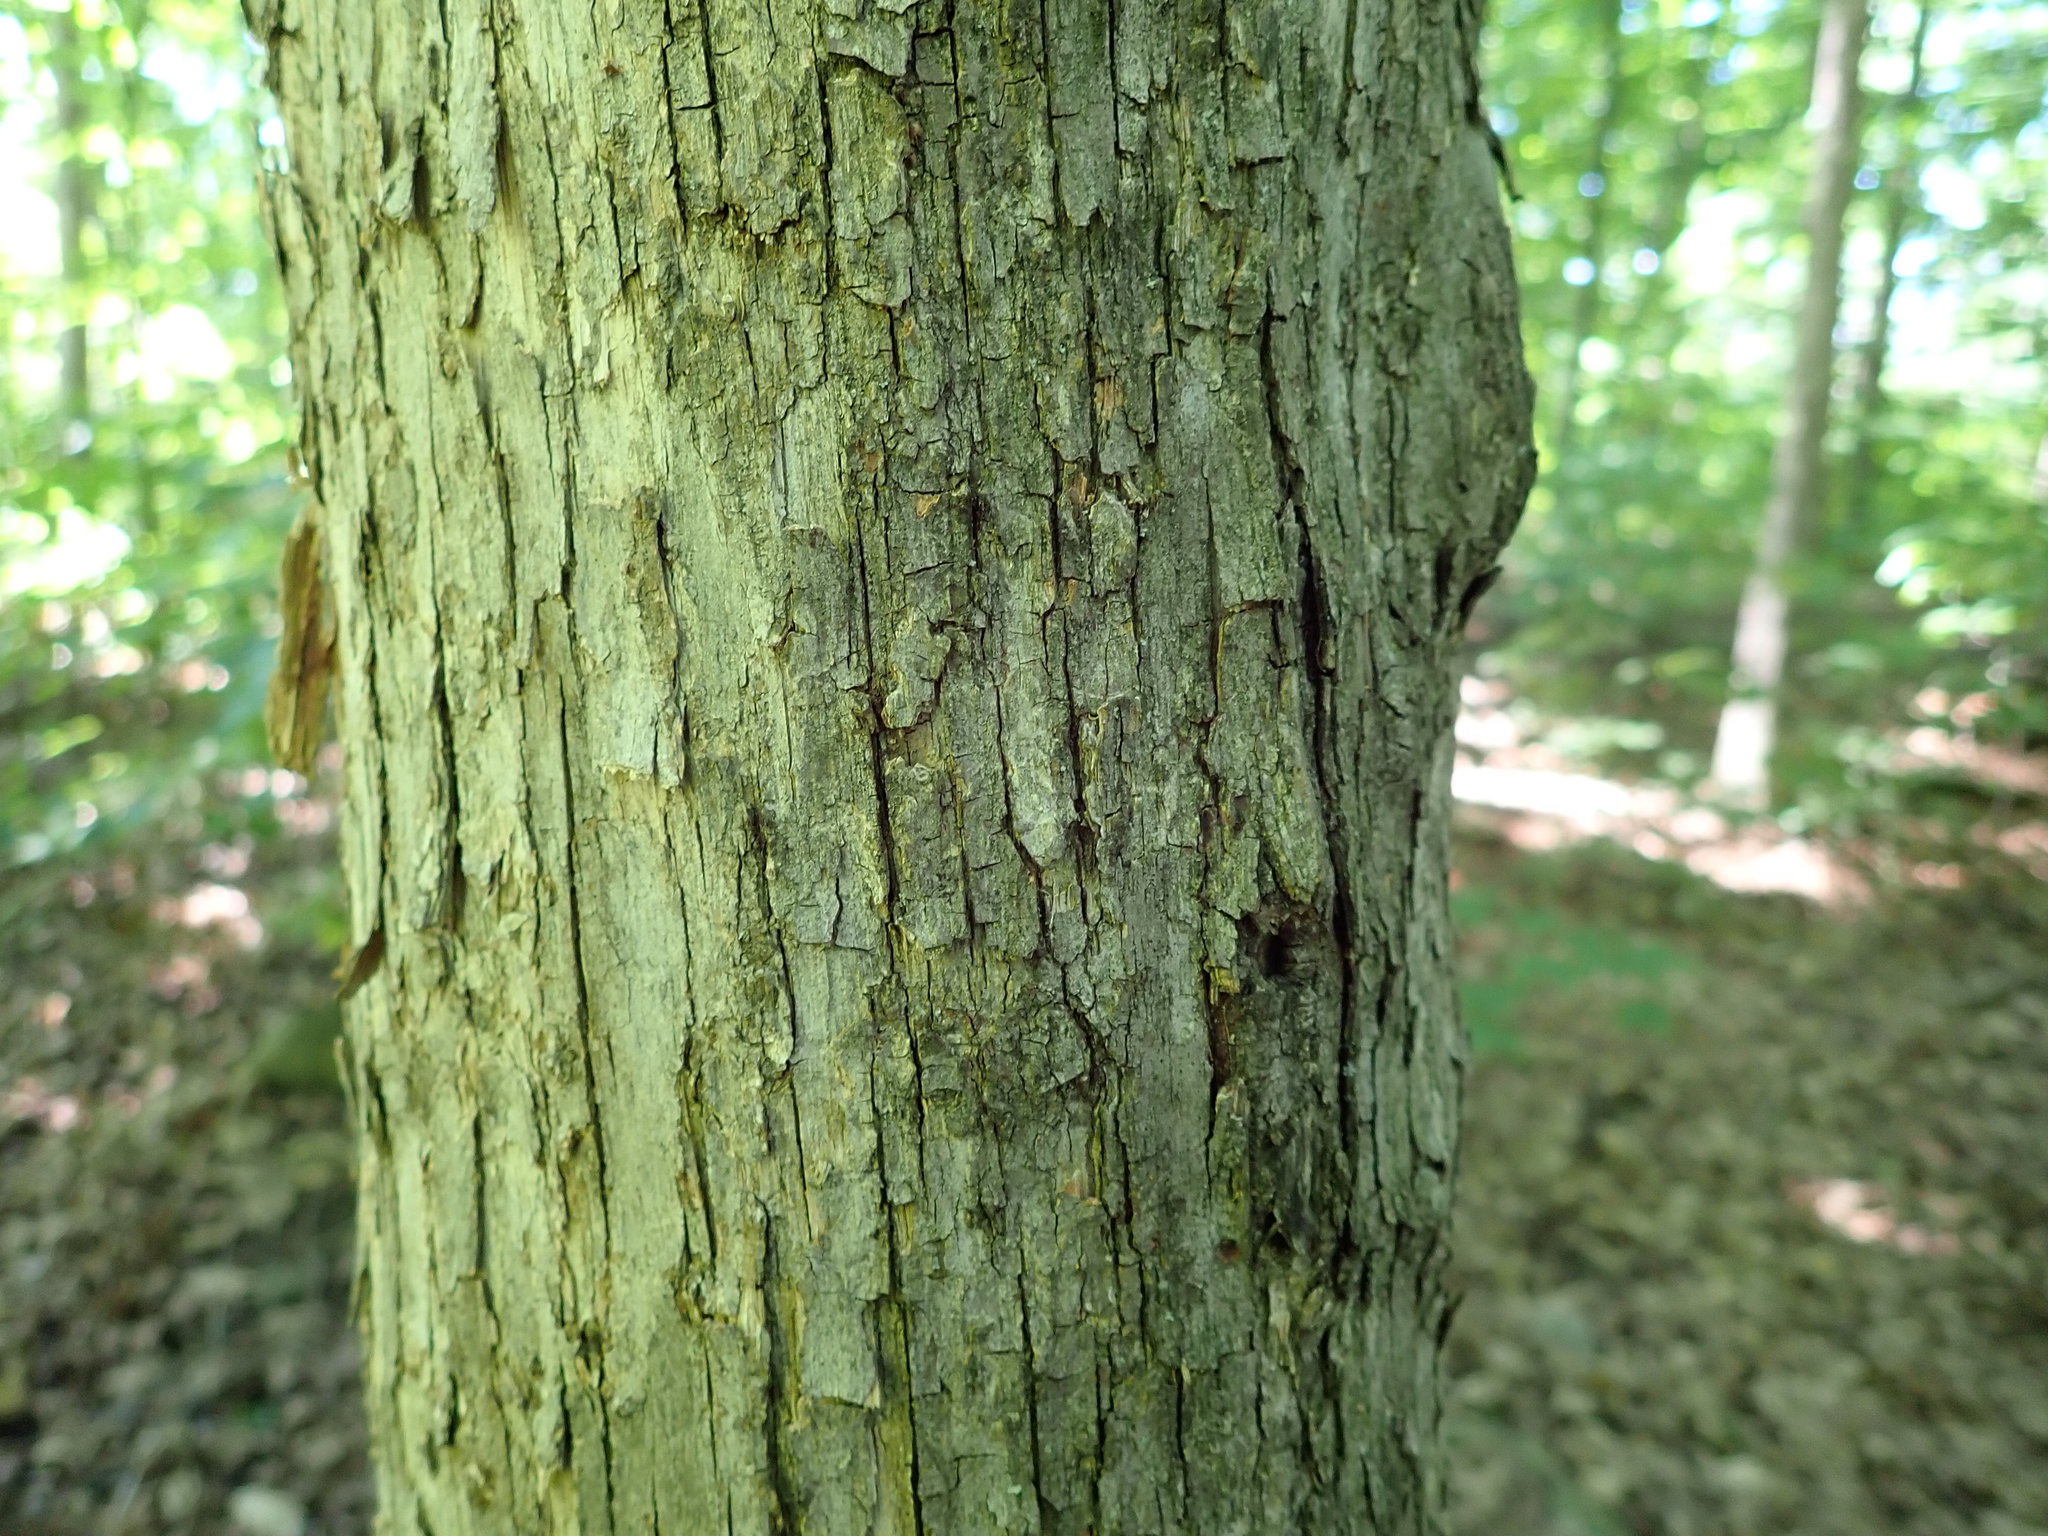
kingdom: Plantae
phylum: Tracheophyta
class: Magnoliopsida
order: Fagales
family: Betulaceae
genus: Ostrya
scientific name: Ostrya virginiana
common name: Ironwood
